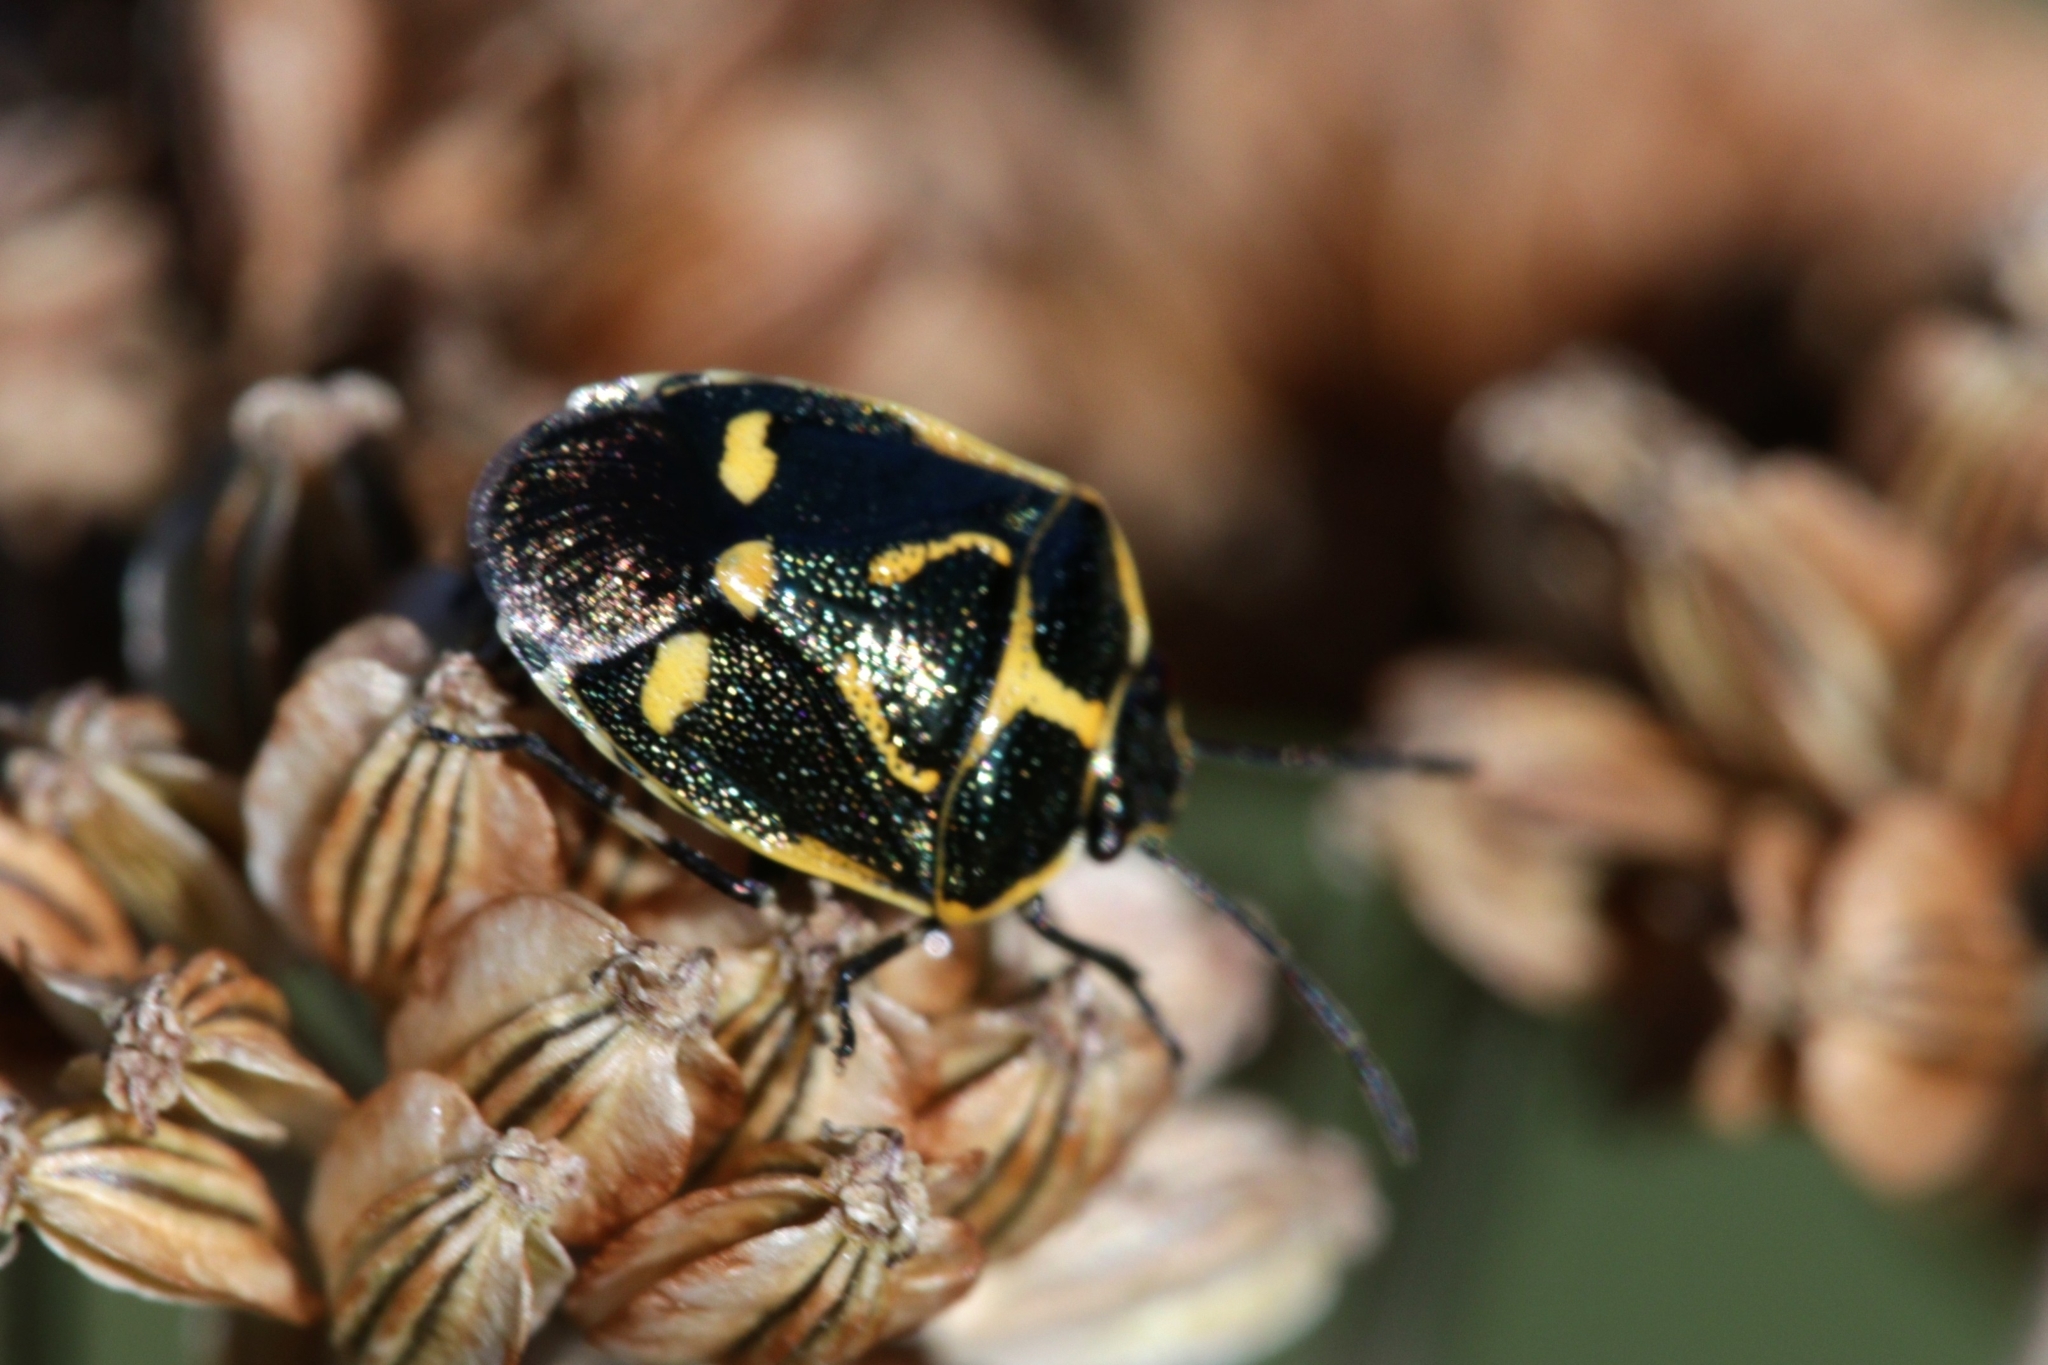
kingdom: Animalia
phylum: Arthropoda
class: Insecta
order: Hemiptera
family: Pentatomidae
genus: Eurydema
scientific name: Eurydema oleracea
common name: Cabbage bug
